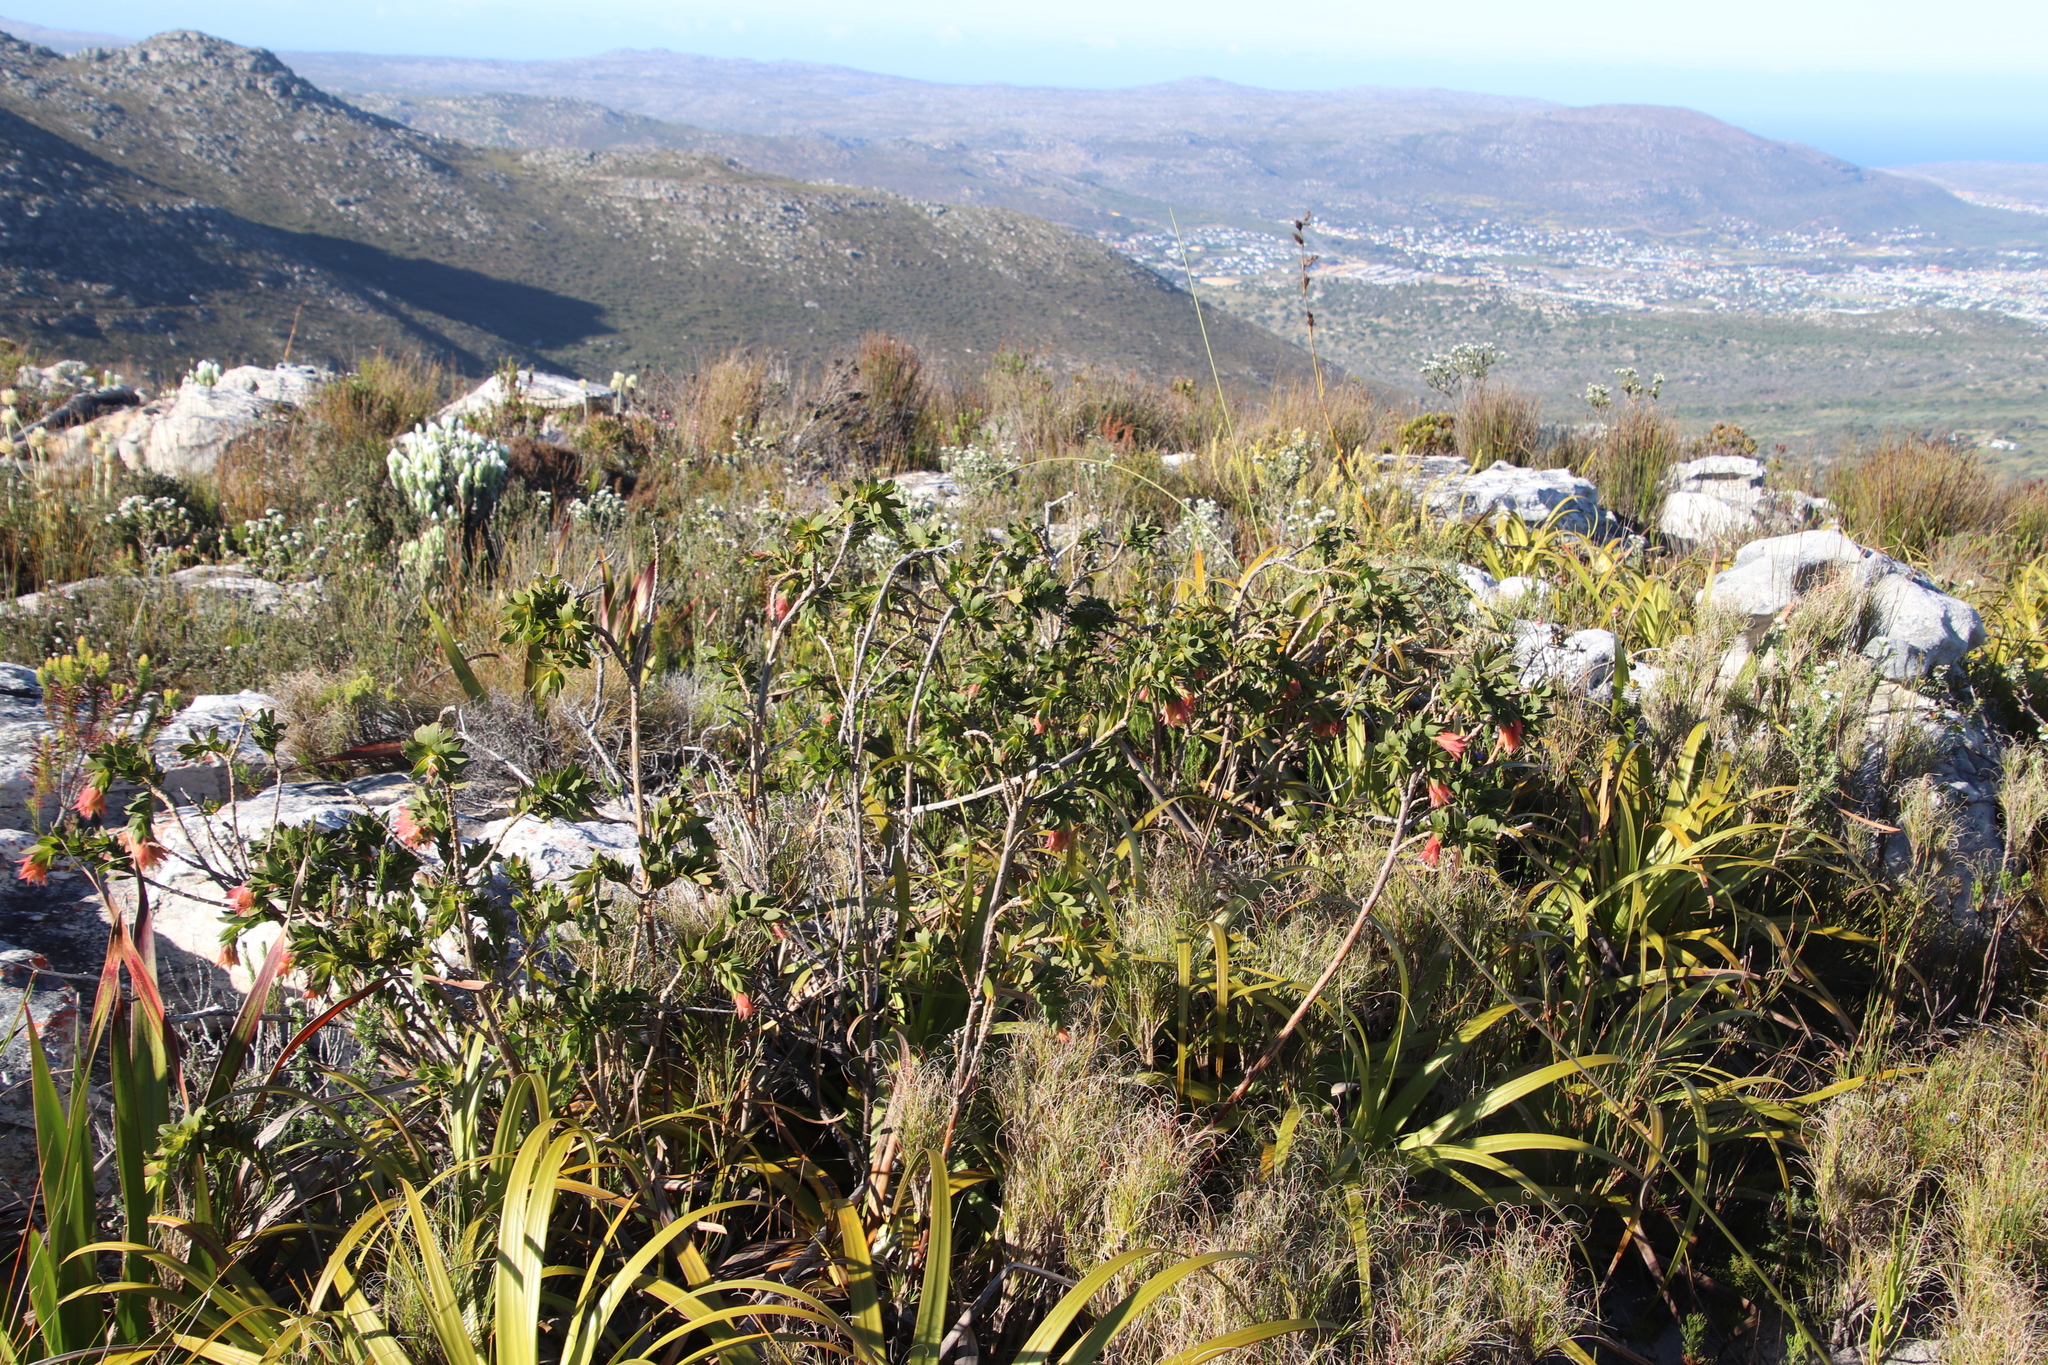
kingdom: Plantae
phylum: Tracheophyta
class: Magnoliopsida
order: Fabales
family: Fabaceae
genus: Liparia
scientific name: Liparia splendens
